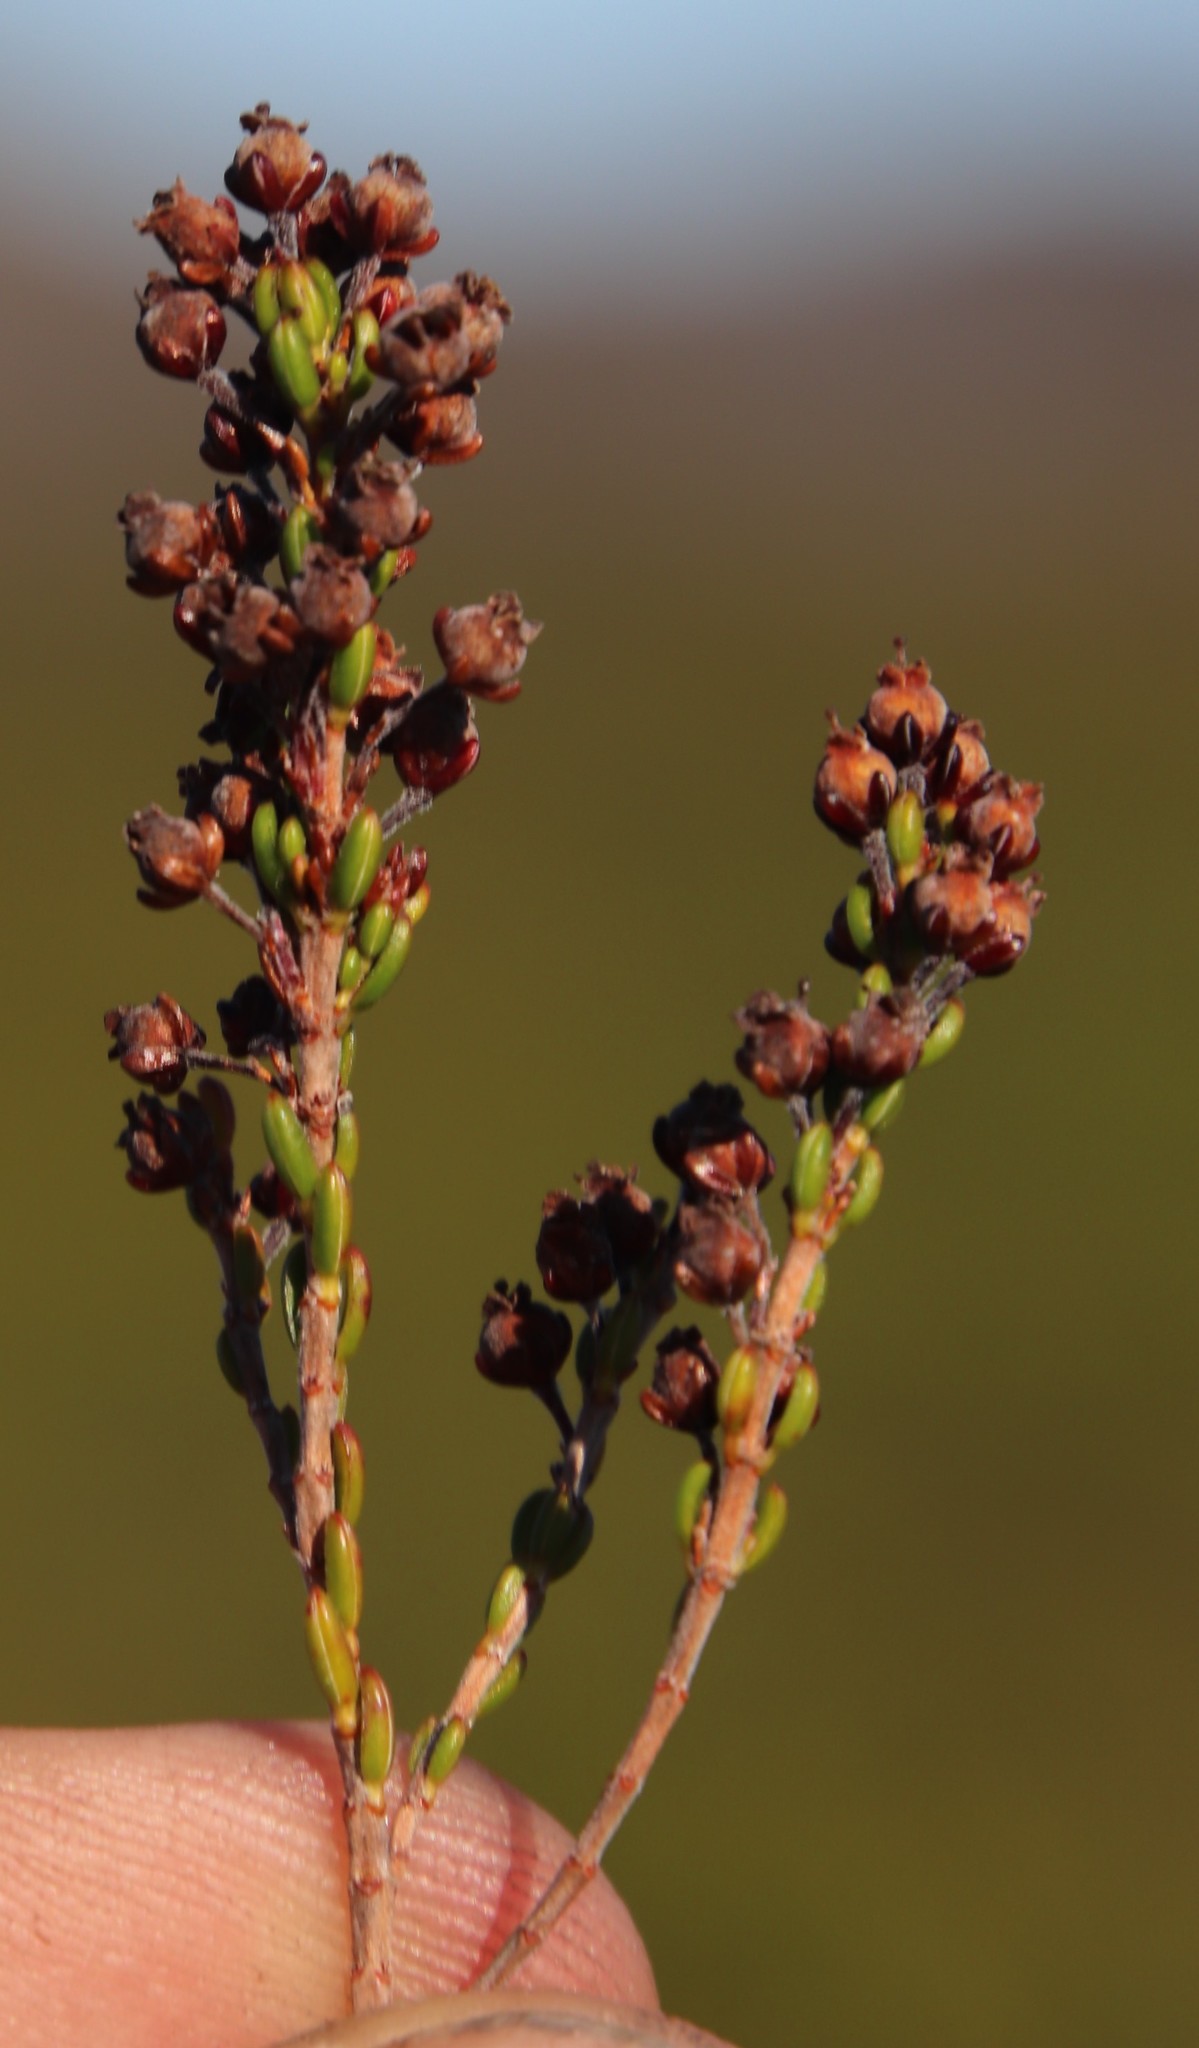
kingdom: Plantae
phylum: Tracheophyta
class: Magnoliopsida
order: Ericales
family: Ericaceae
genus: Erica
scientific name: Erica hispidula
